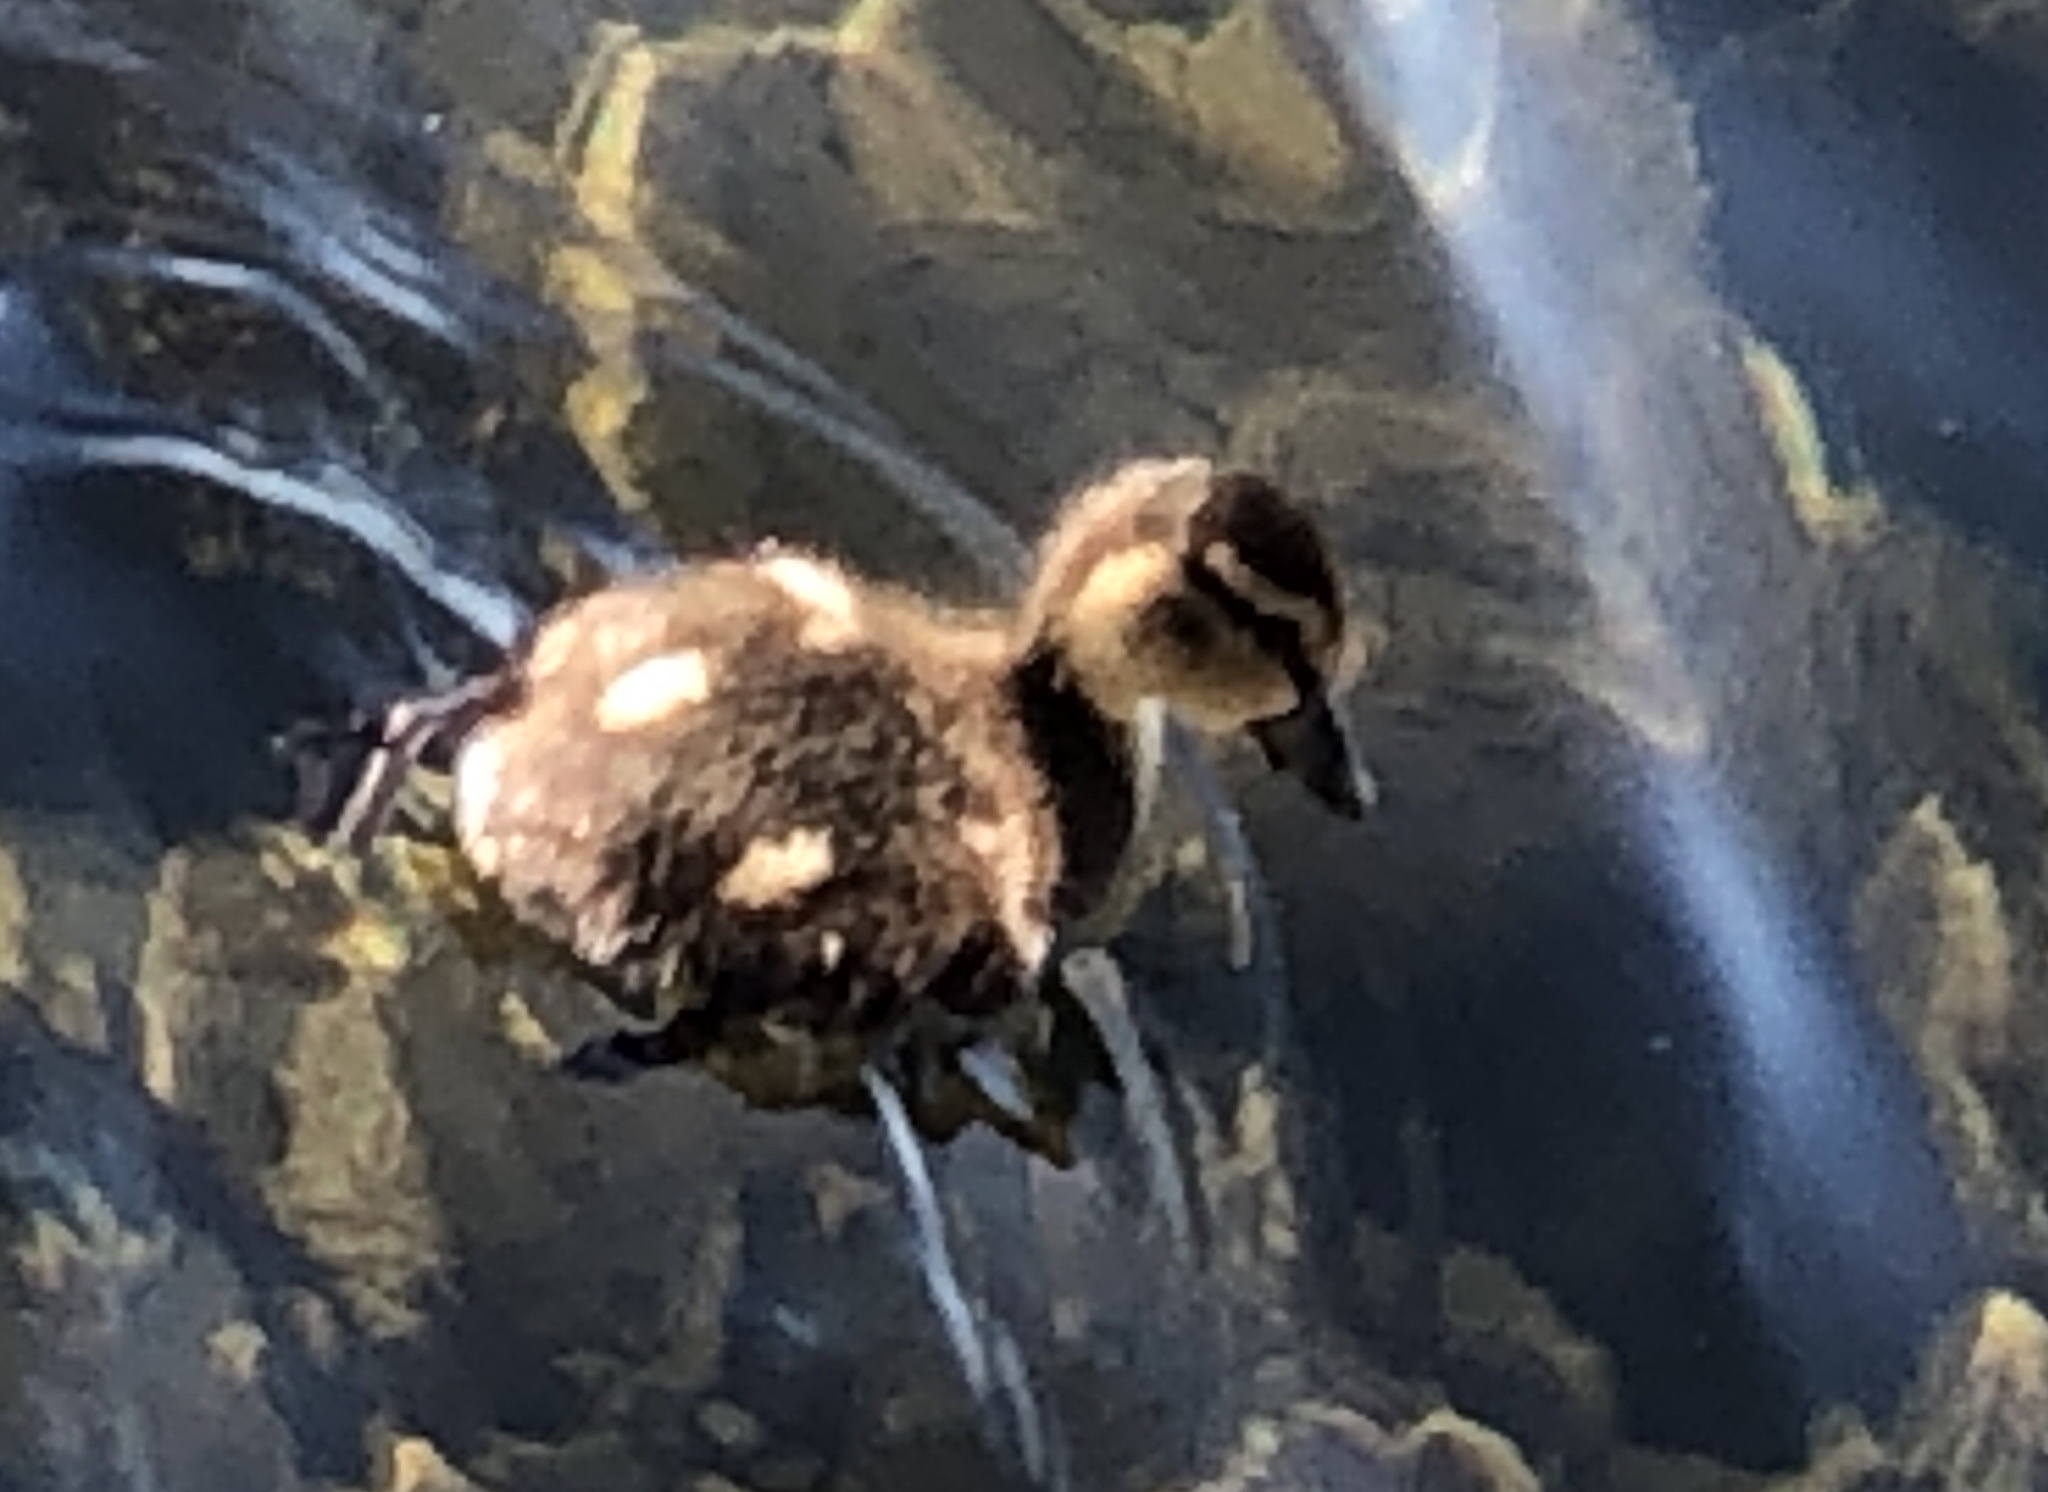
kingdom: Animalia
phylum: Chordata
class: Aves
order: Anseriformes
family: Anatidae
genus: Anas
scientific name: Anas platyrhynchos
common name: Mallard
